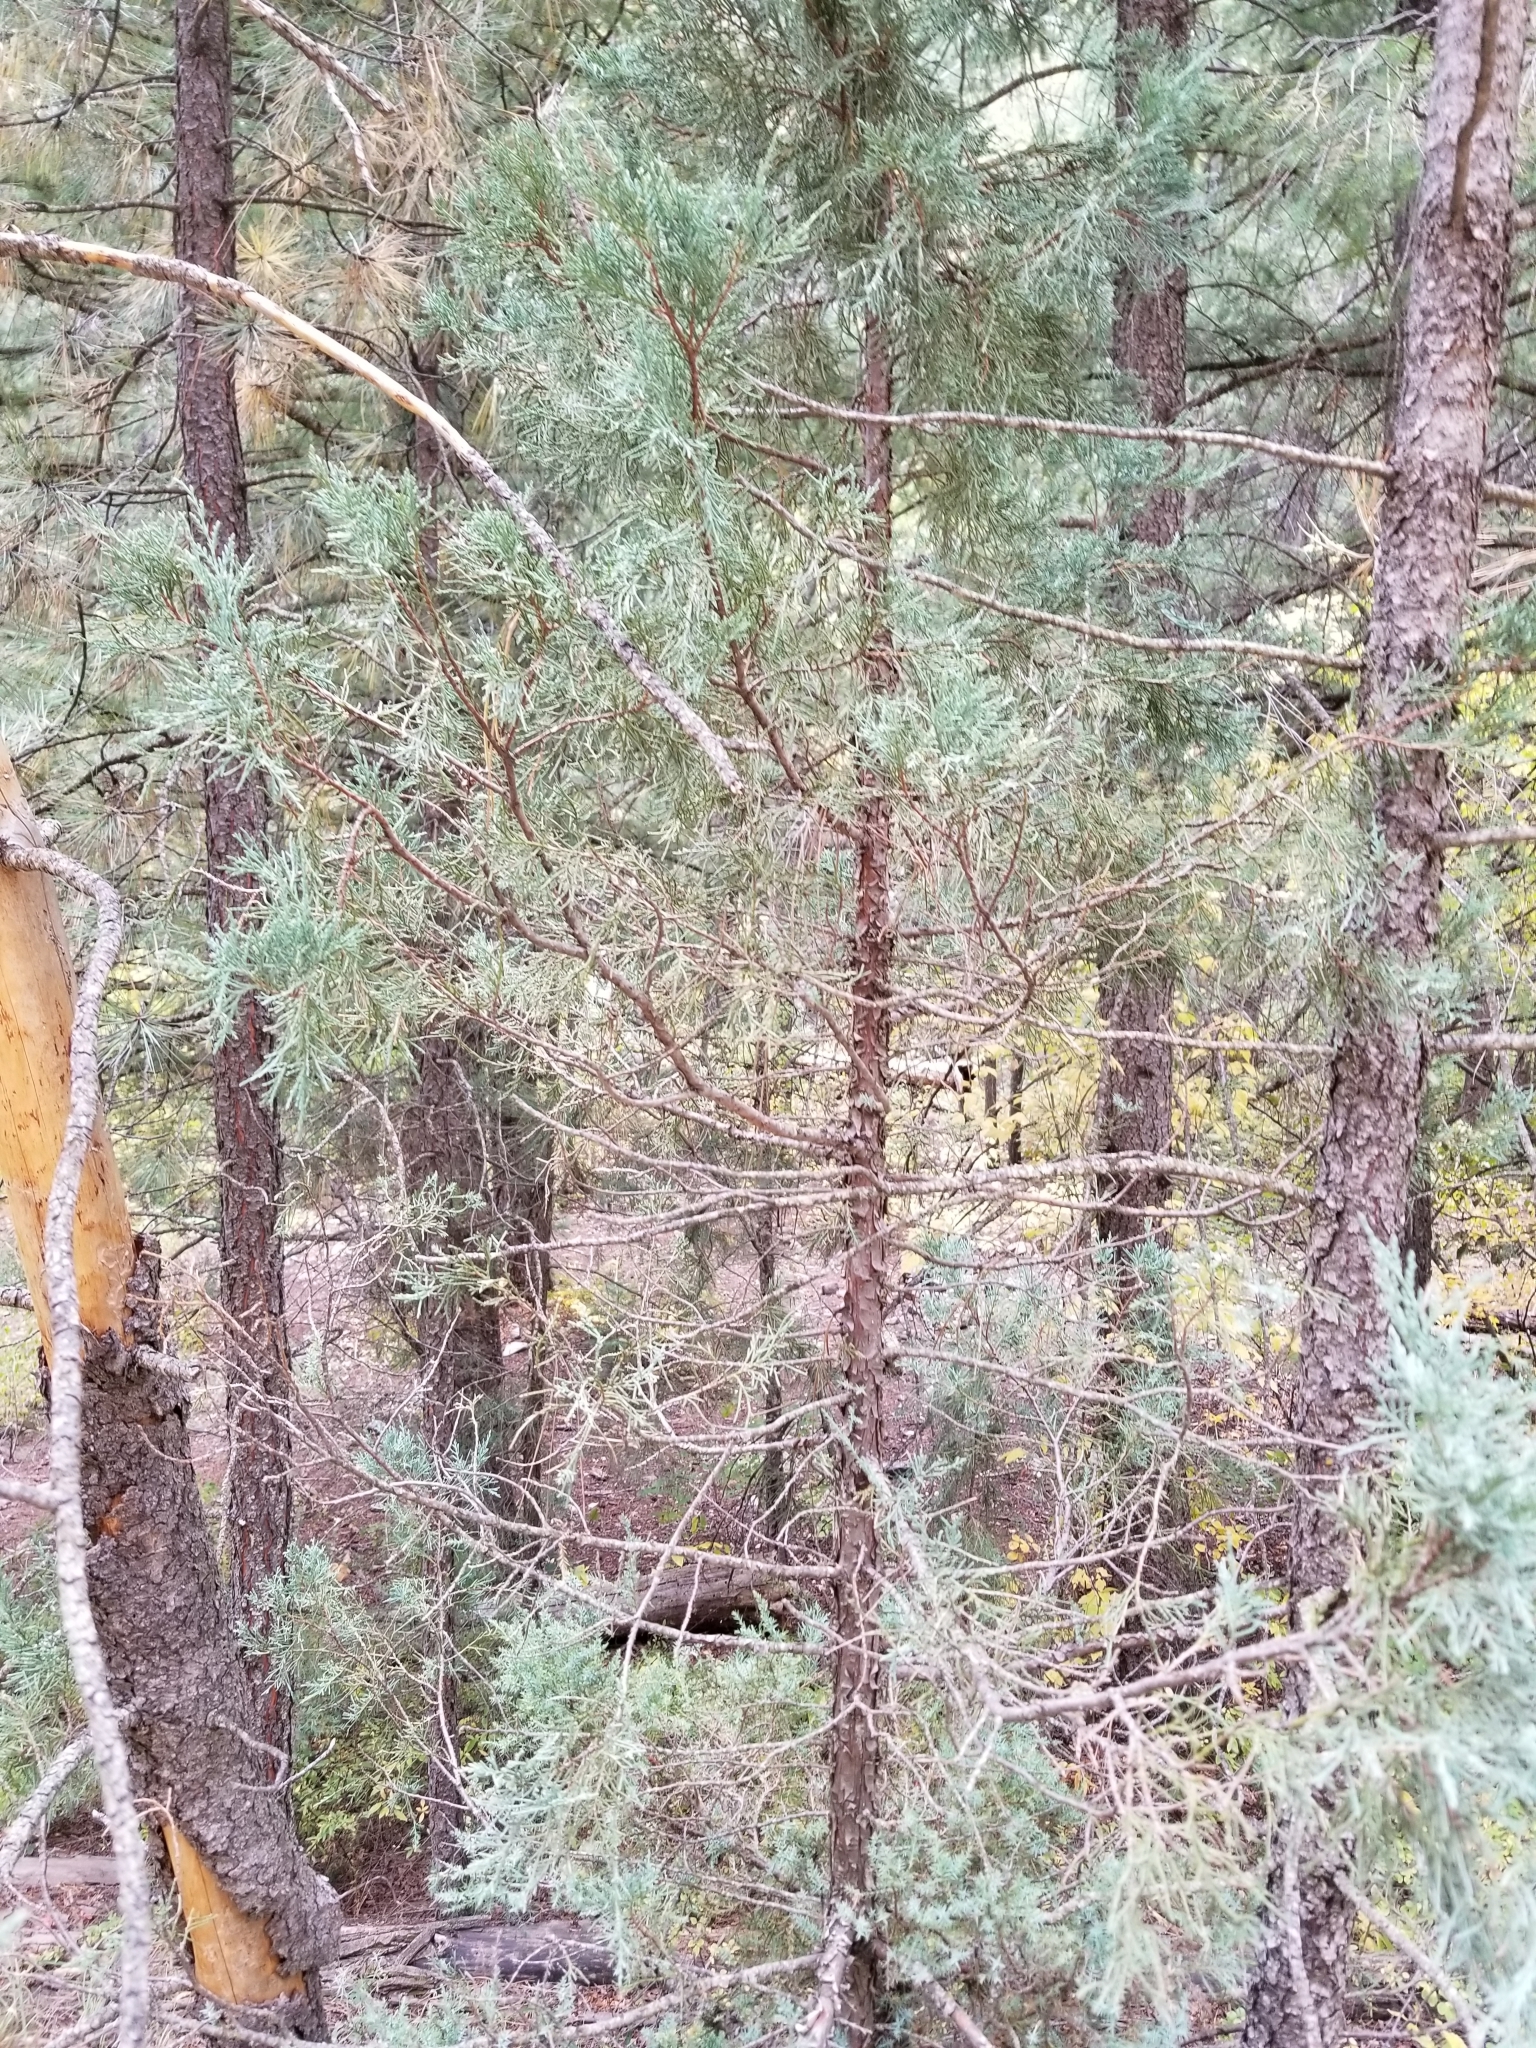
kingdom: Plantae
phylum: Tracheophyta
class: Pinopsida
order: Pinales
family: Cupressaceae
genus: Juniperus
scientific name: Juniperus scopulorum
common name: Rocky mountain juniper
